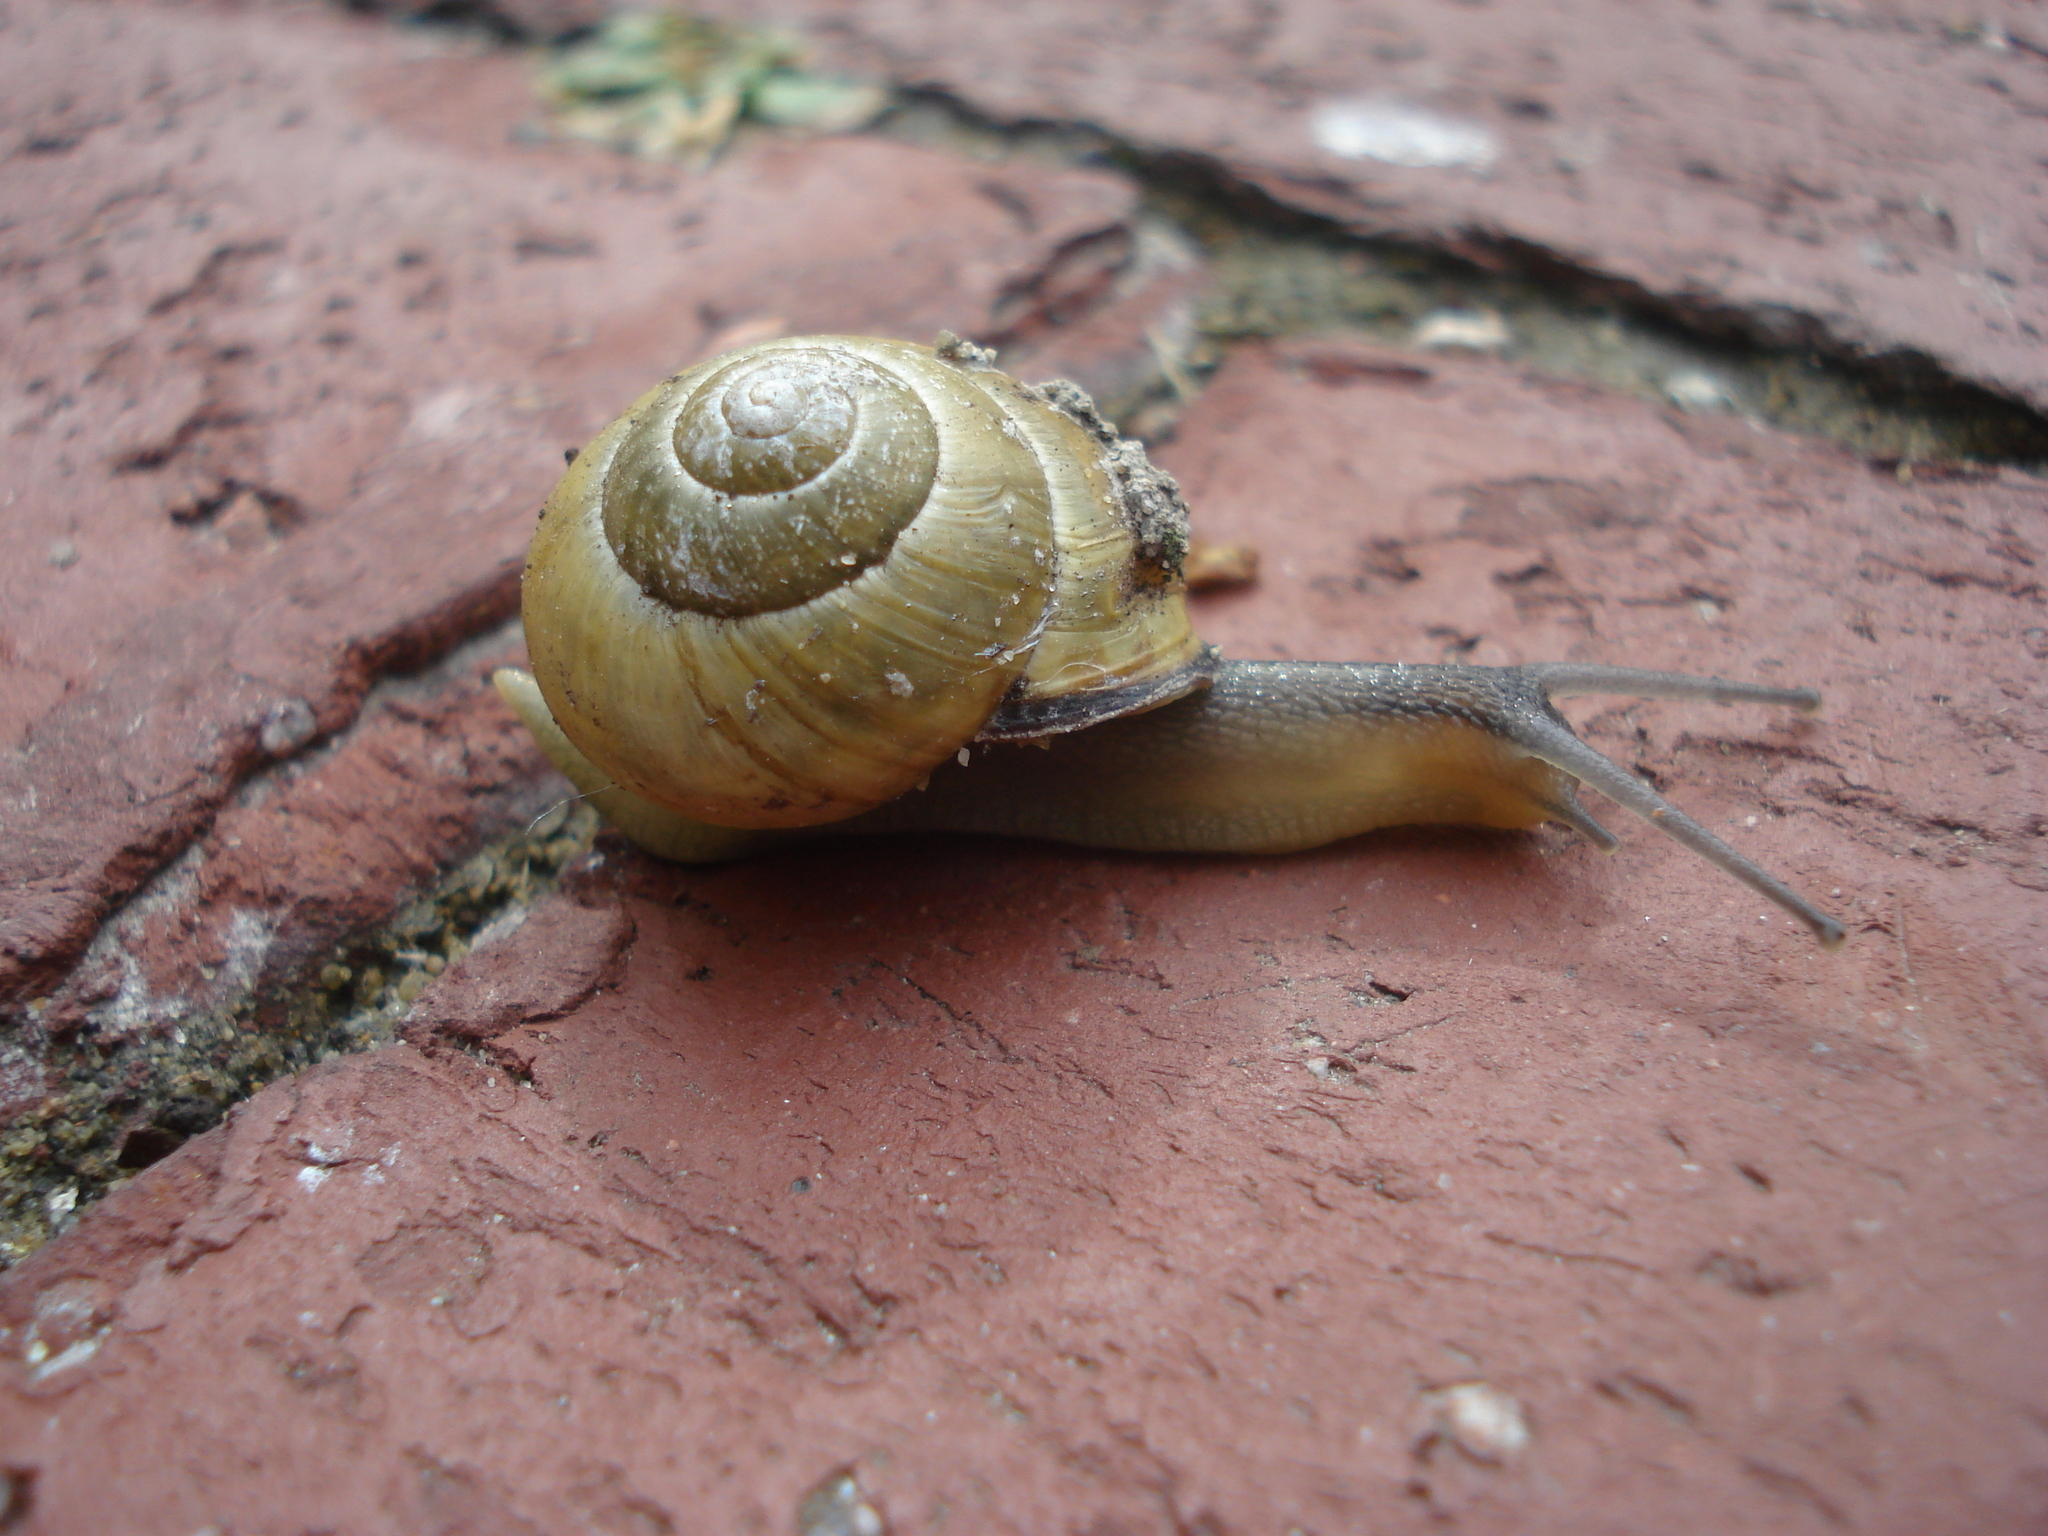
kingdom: Animalia
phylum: Mollusca
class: Gastropoda
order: Stylommatophora
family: Helicidae
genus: Cepaea
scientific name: Cepaea nemoralis
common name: Grovesnail
